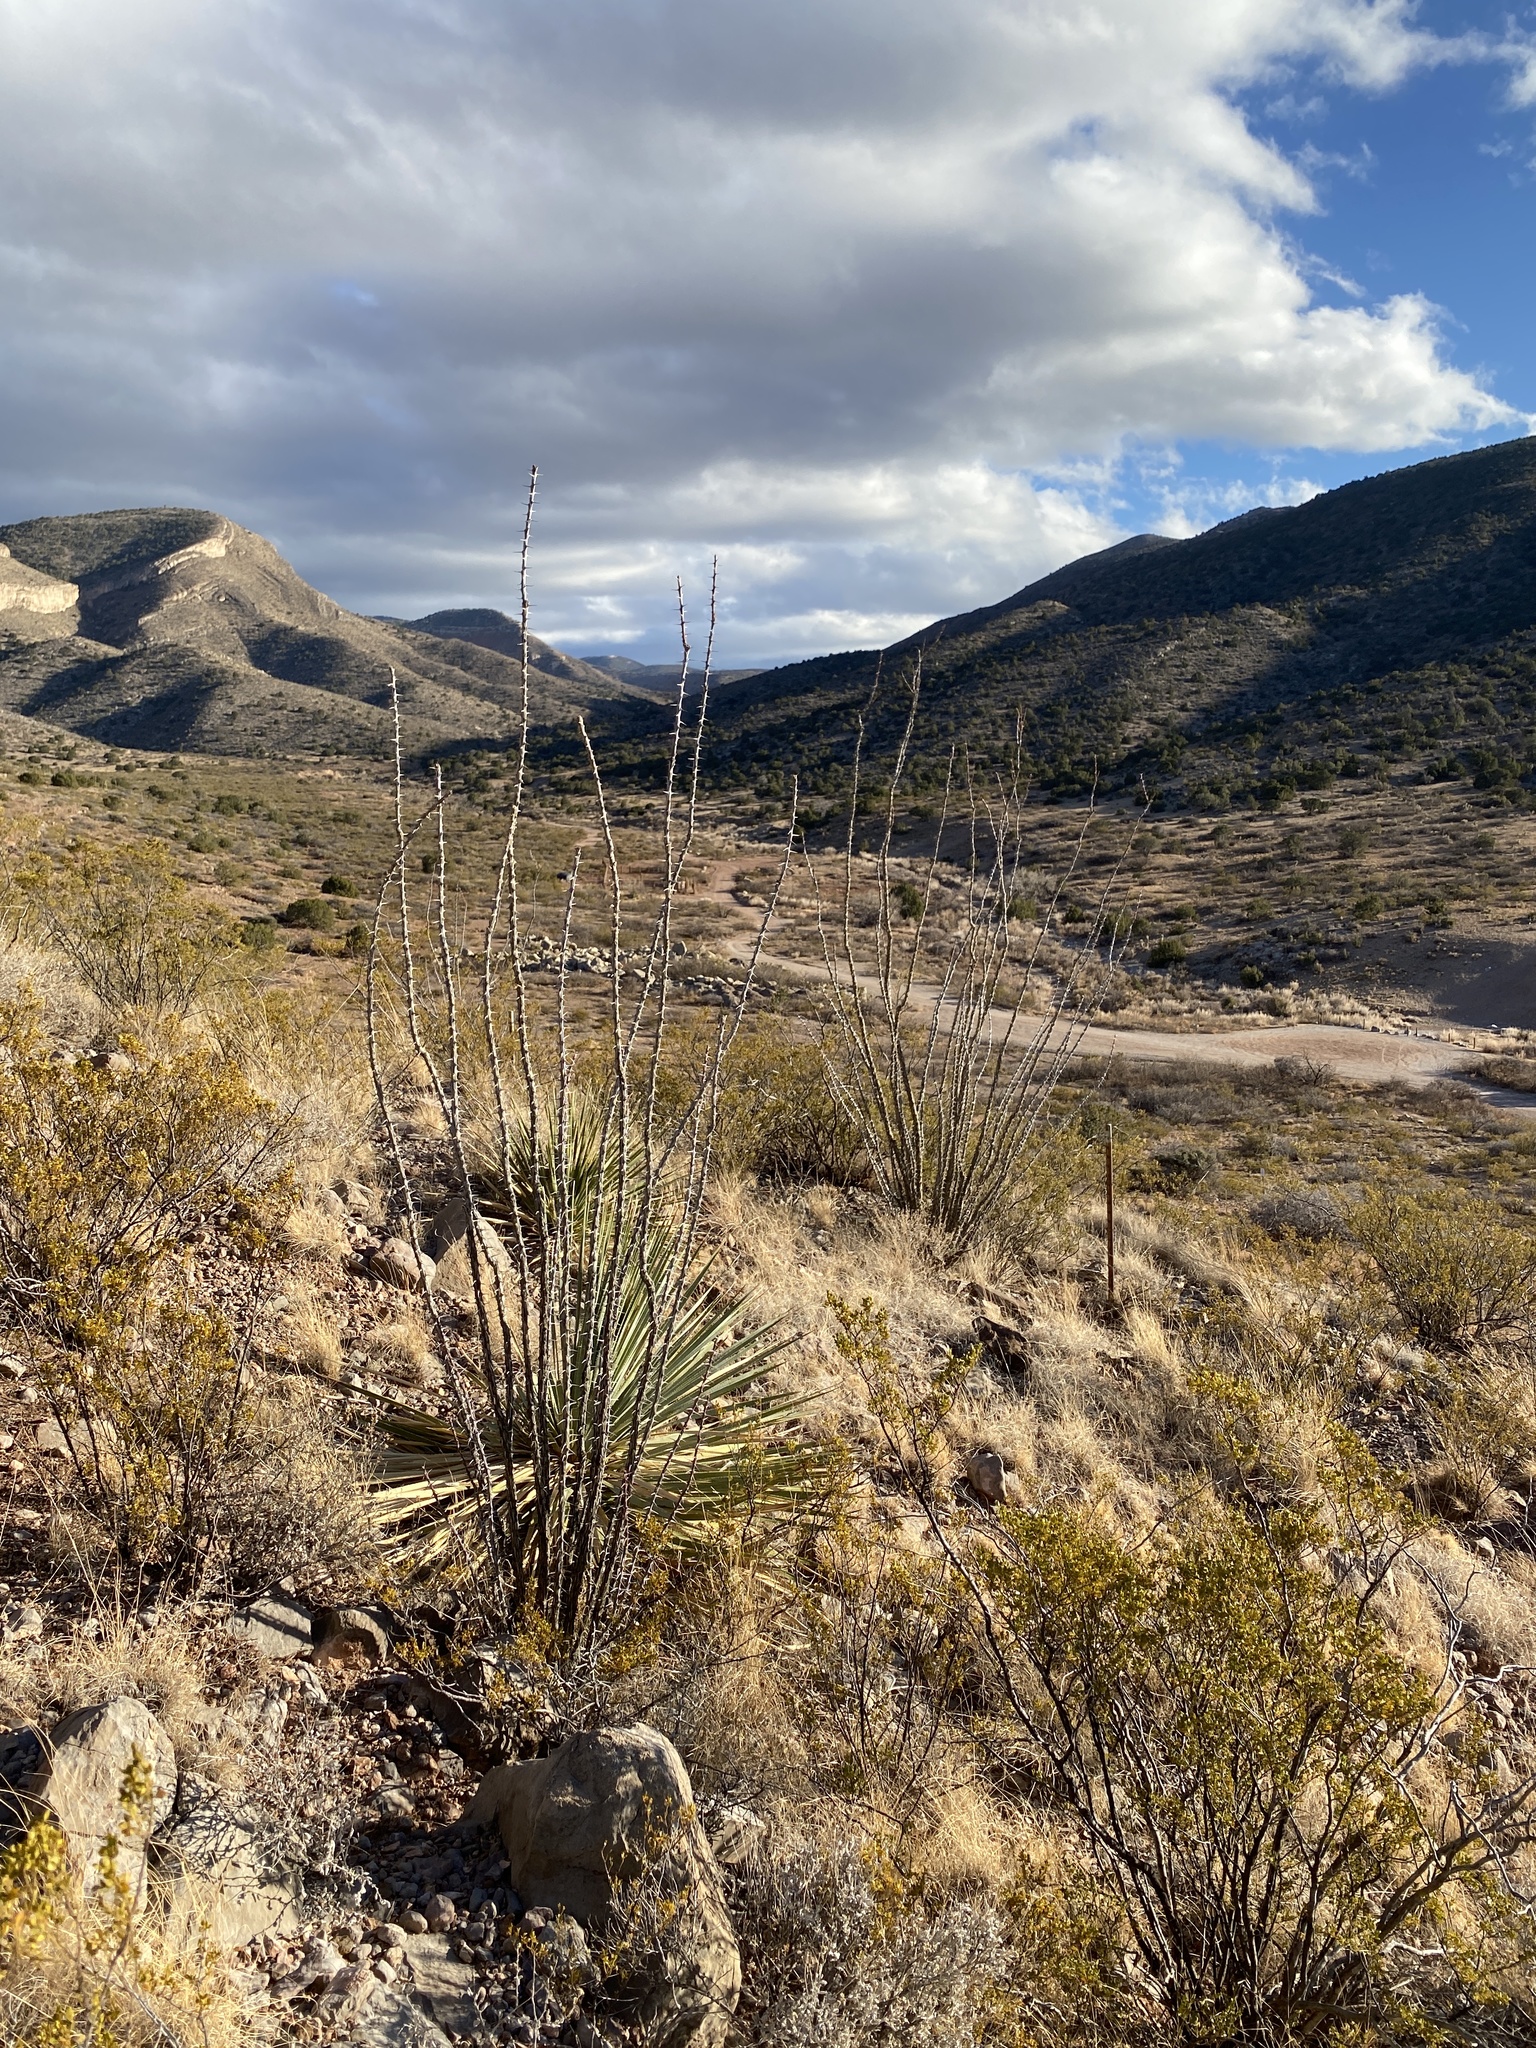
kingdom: Plantae
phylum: Tracheophyta
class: Magnoliopsida
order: Ericales
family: Fouquieriaceae
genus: Fouquieria
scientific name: Fouquieria splendens
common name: Vine-cactus
